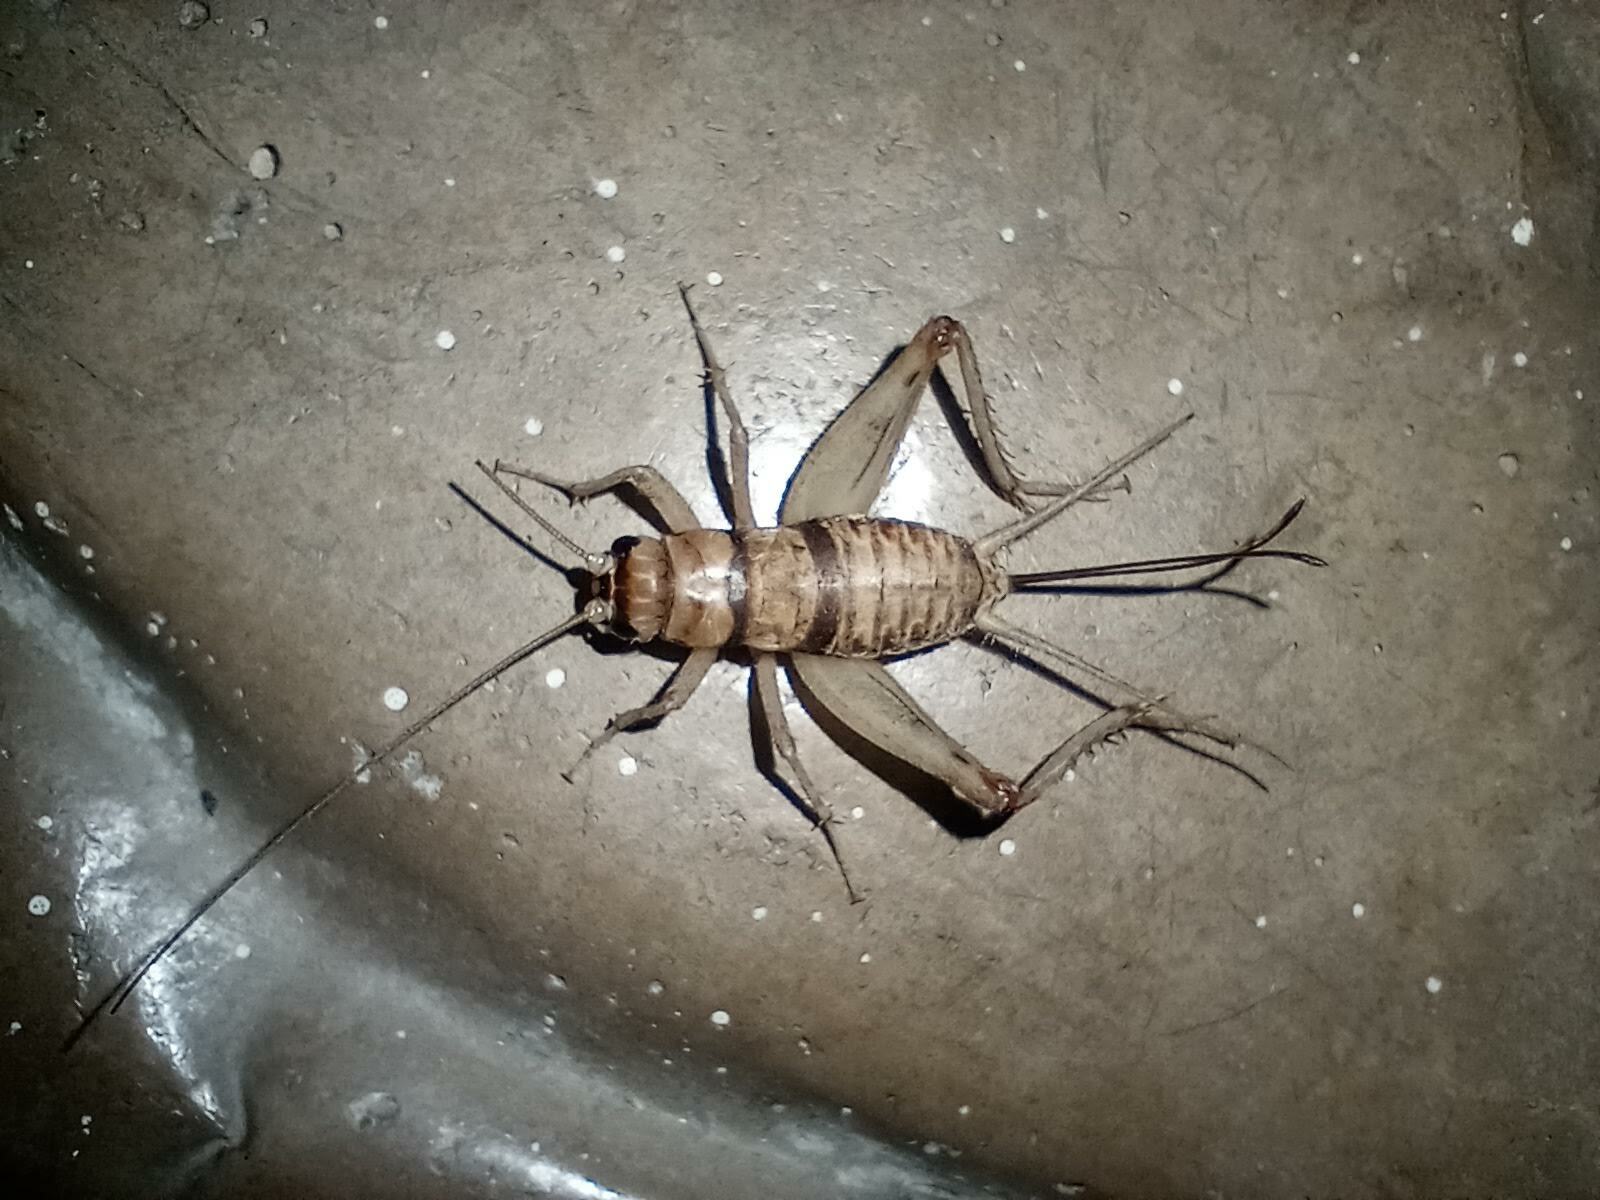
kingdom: Animalia
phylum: Arthropoda
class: Insecta
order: Orthoptera
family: Gryllidae
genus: Gryllodes
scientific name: Gryllodes sigillatus
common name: Tropical house cricket
